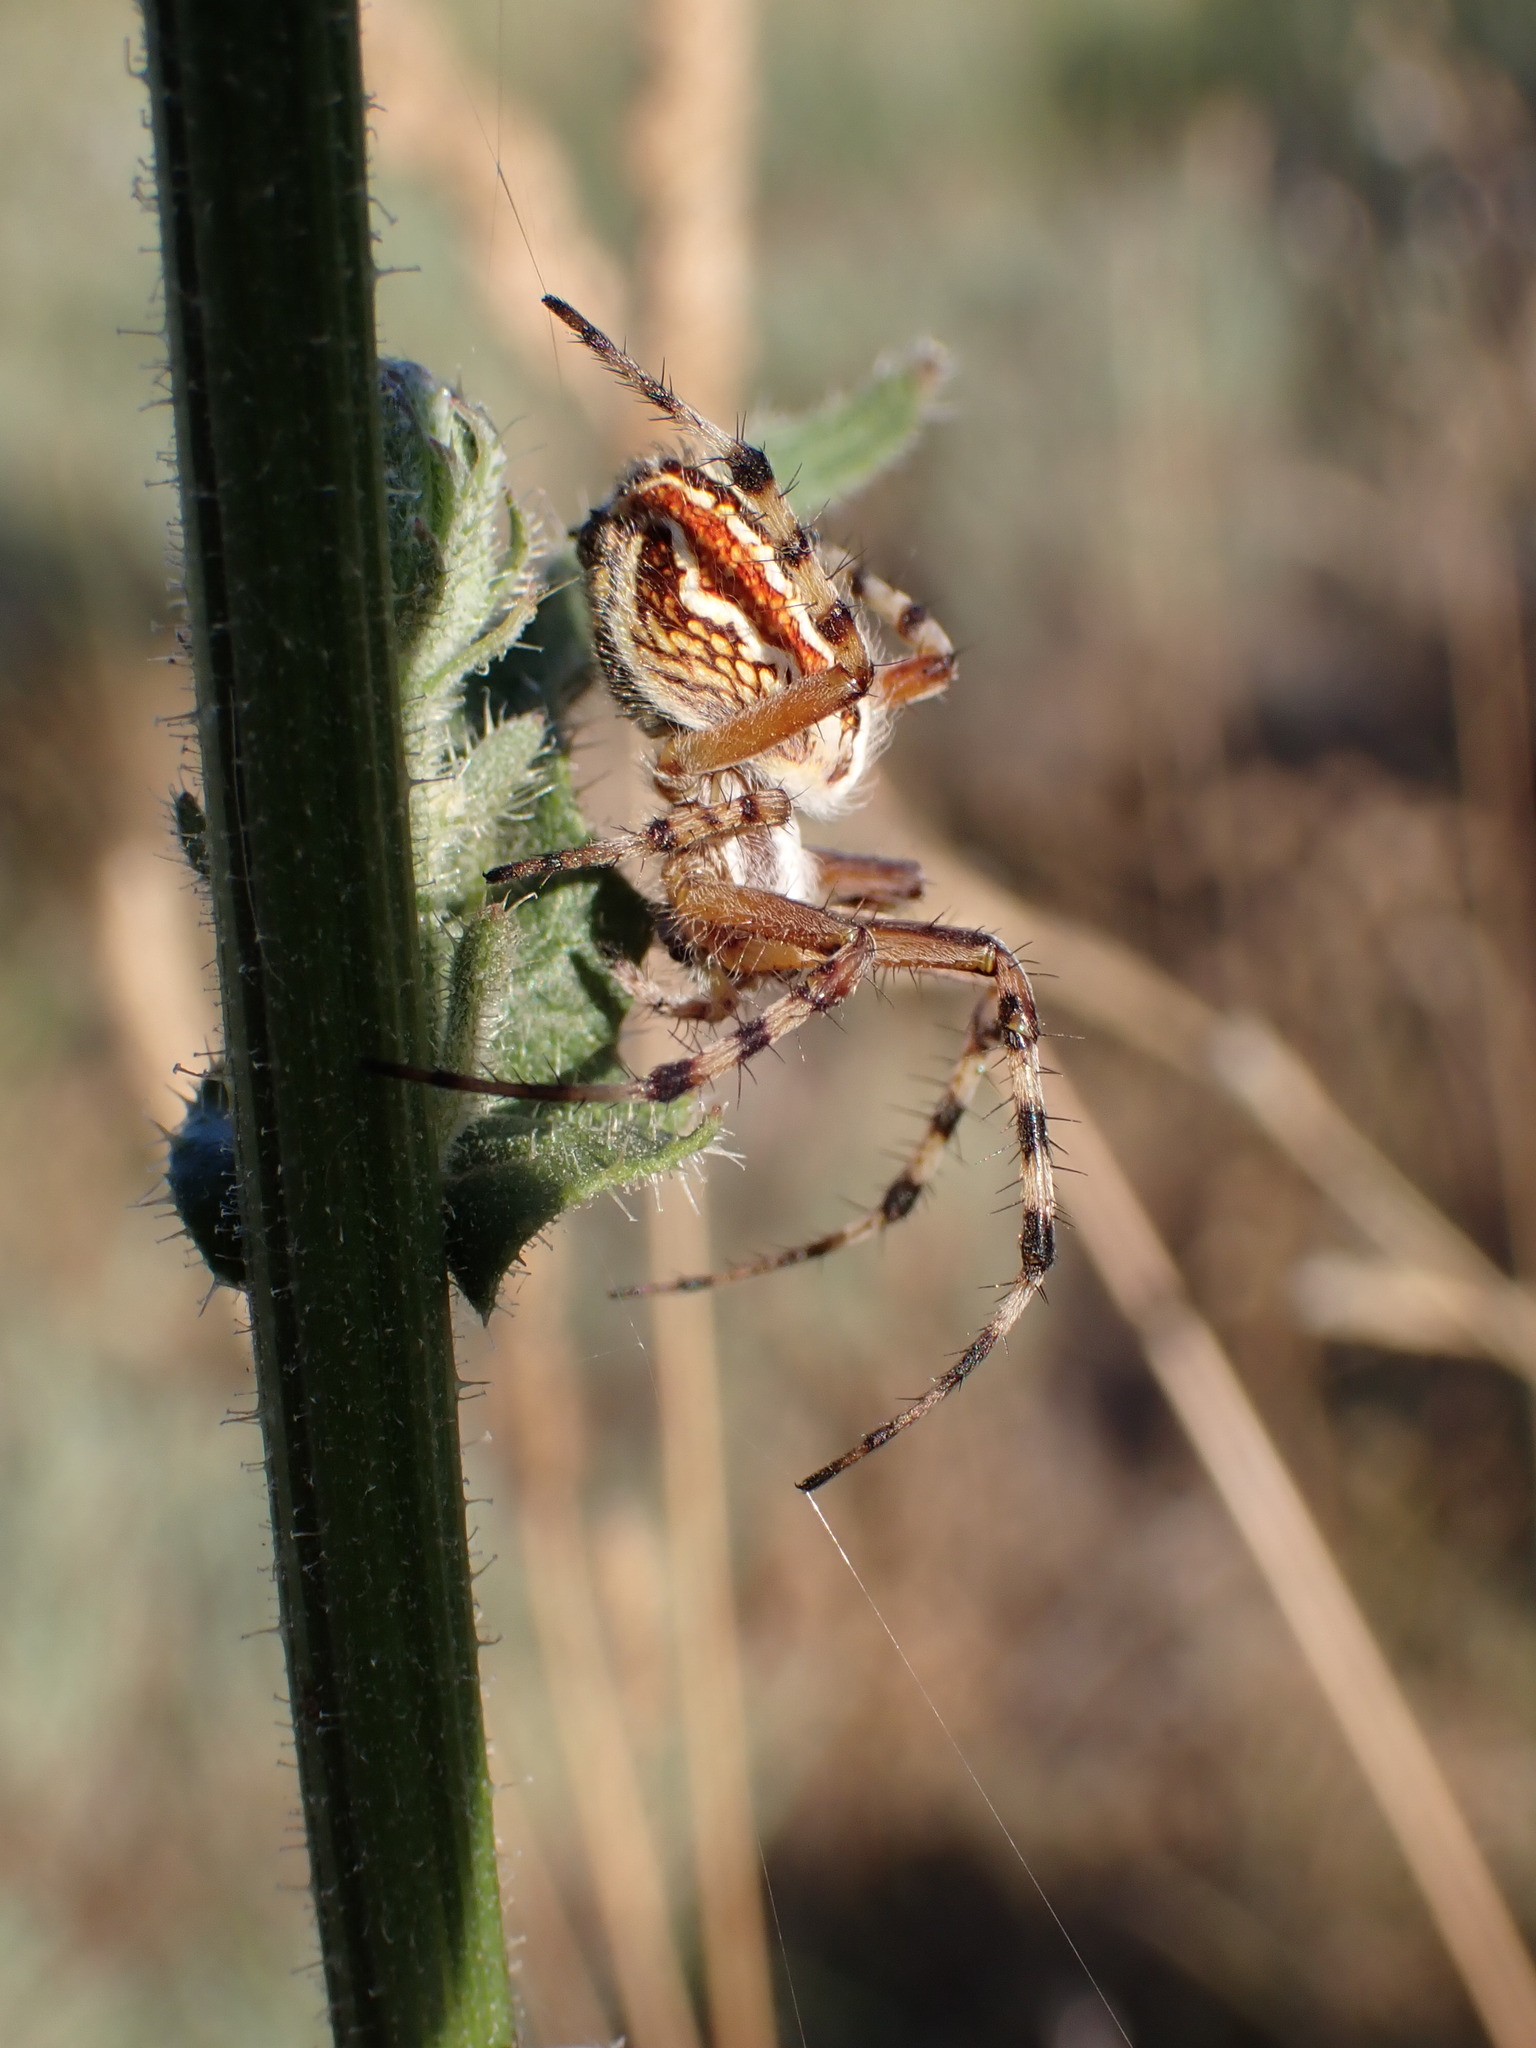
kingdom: Animalia
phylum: Arthropoda
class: Arachnida
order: Araneae
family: Araneidae
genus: Aculepeira
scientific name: Aculepeira armida
